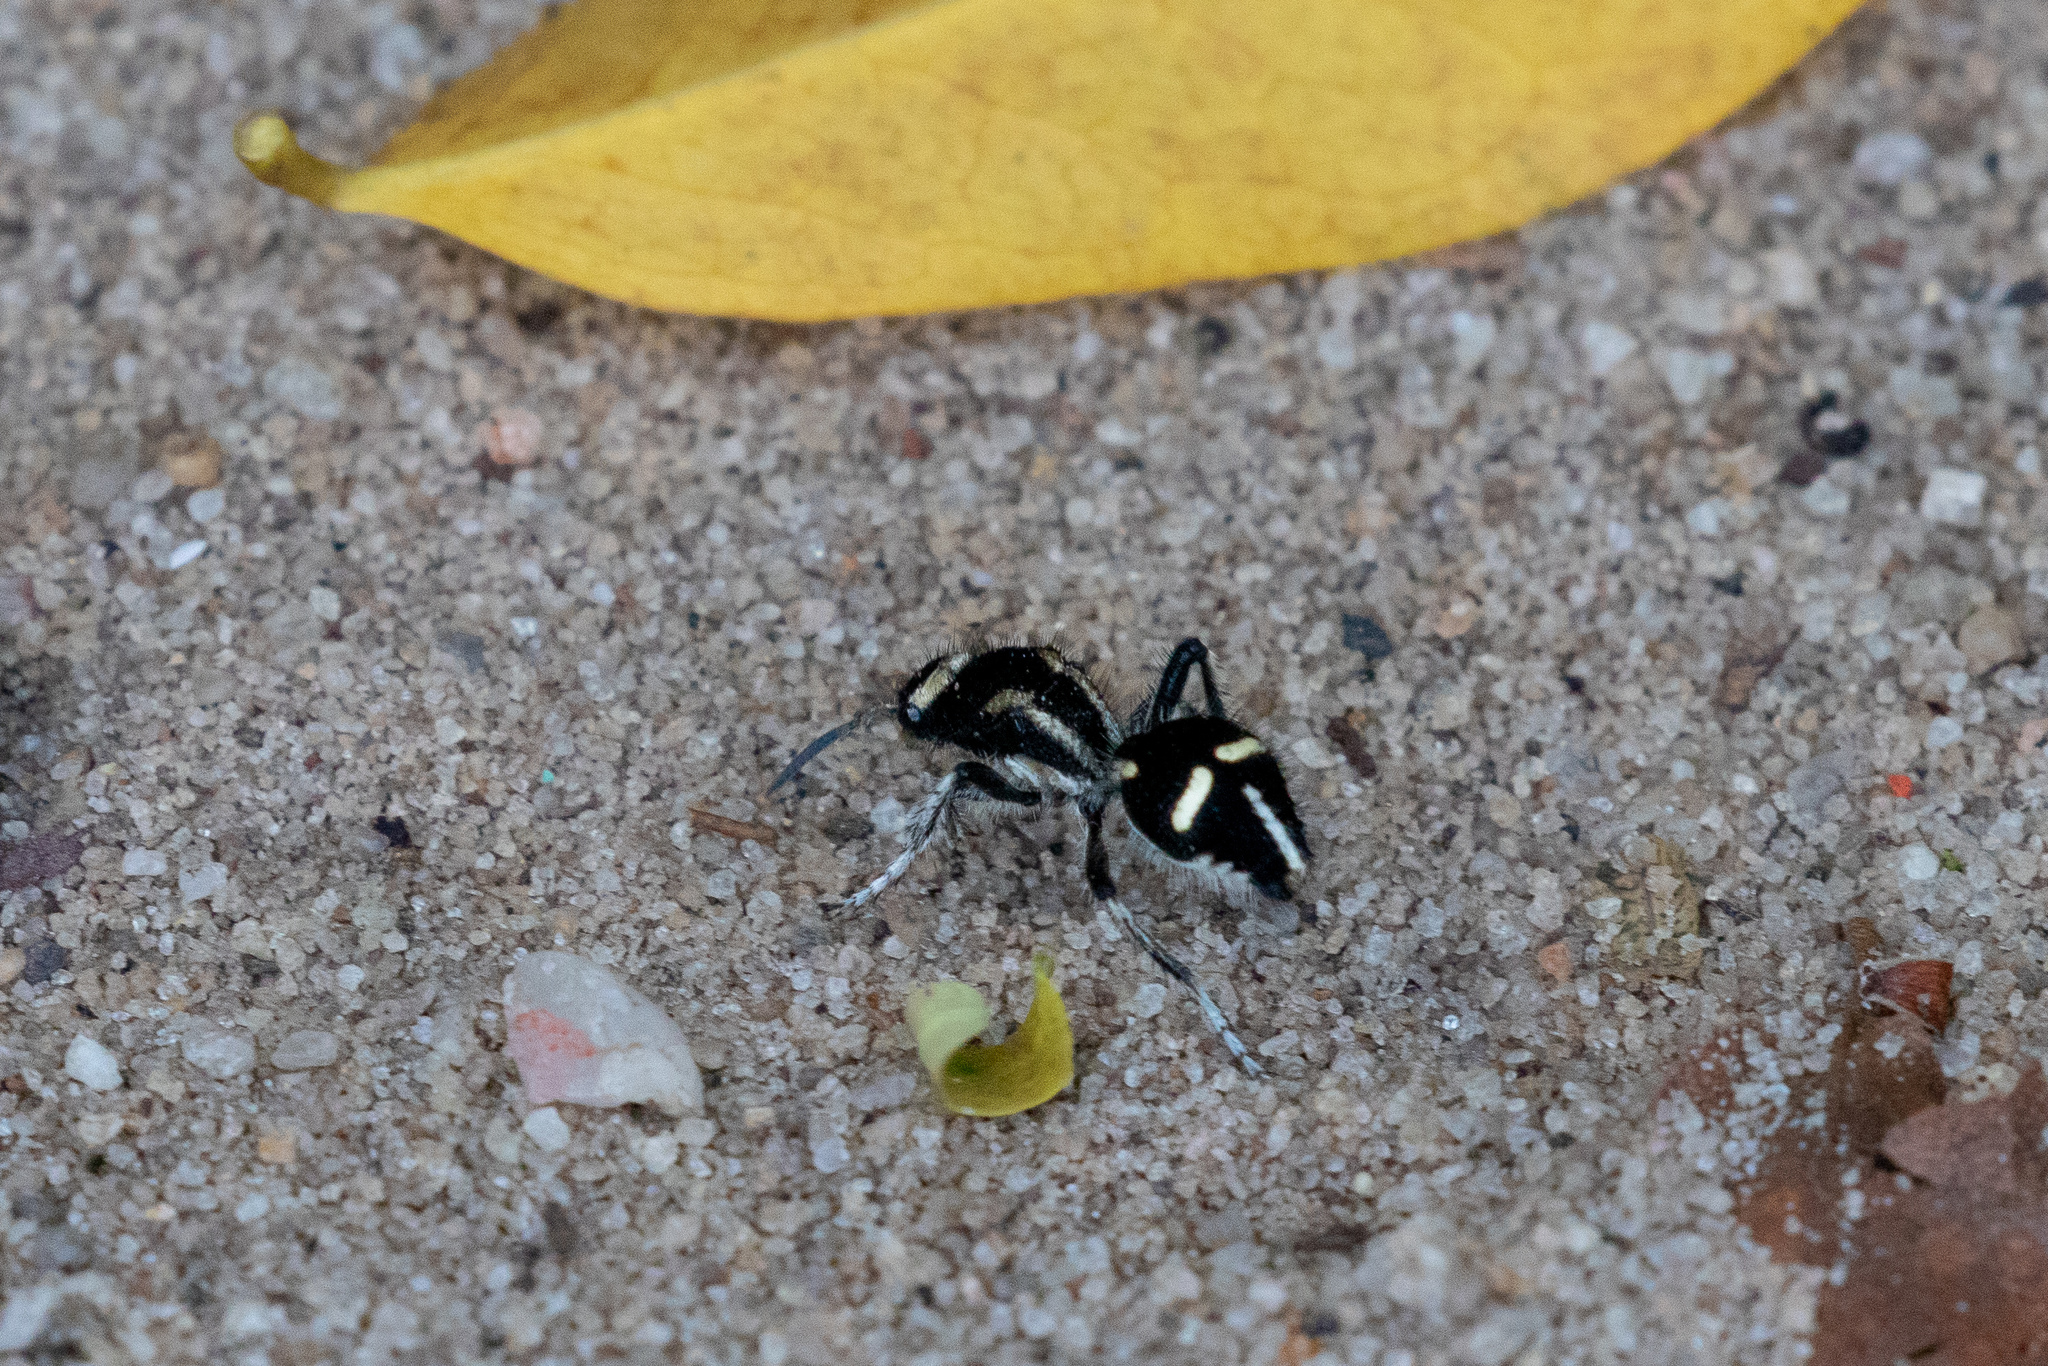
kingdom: Animalia
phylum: Arthropoda
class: Insecta
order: Hymenoptera
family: Mutillidae
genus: Traumatomutilla
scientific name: Traumatomutilla indica
